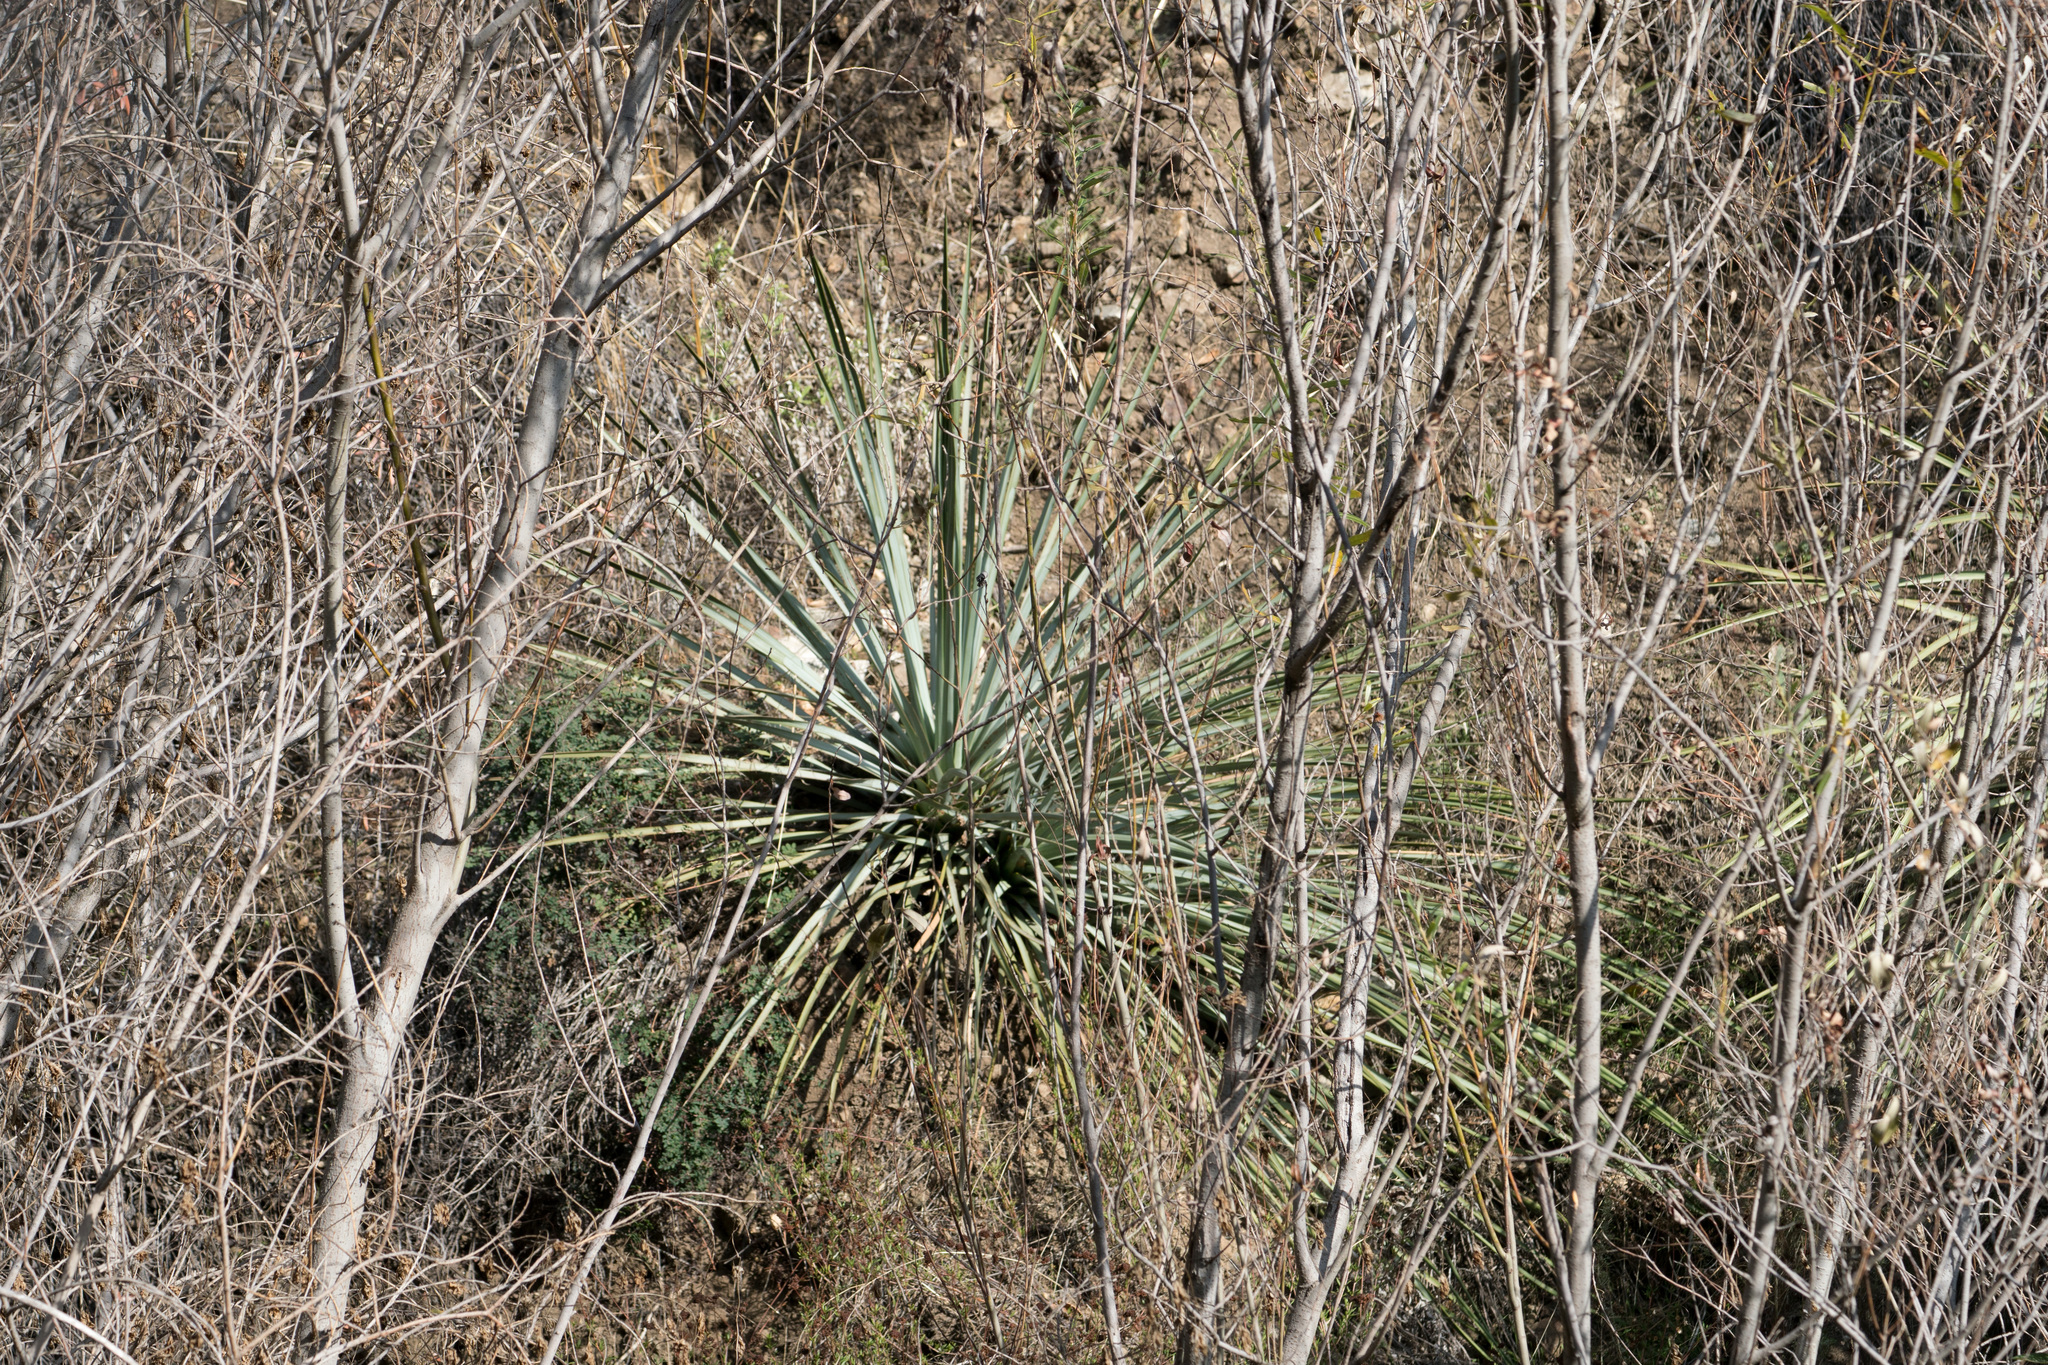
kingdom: Plantae
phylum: Tracheophyta
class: Liliopsida
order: Asparagales
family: Asparagaceae
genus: Hesperoyucca
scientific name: Hesperoyucca whipplei
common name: Our lord's-candle
